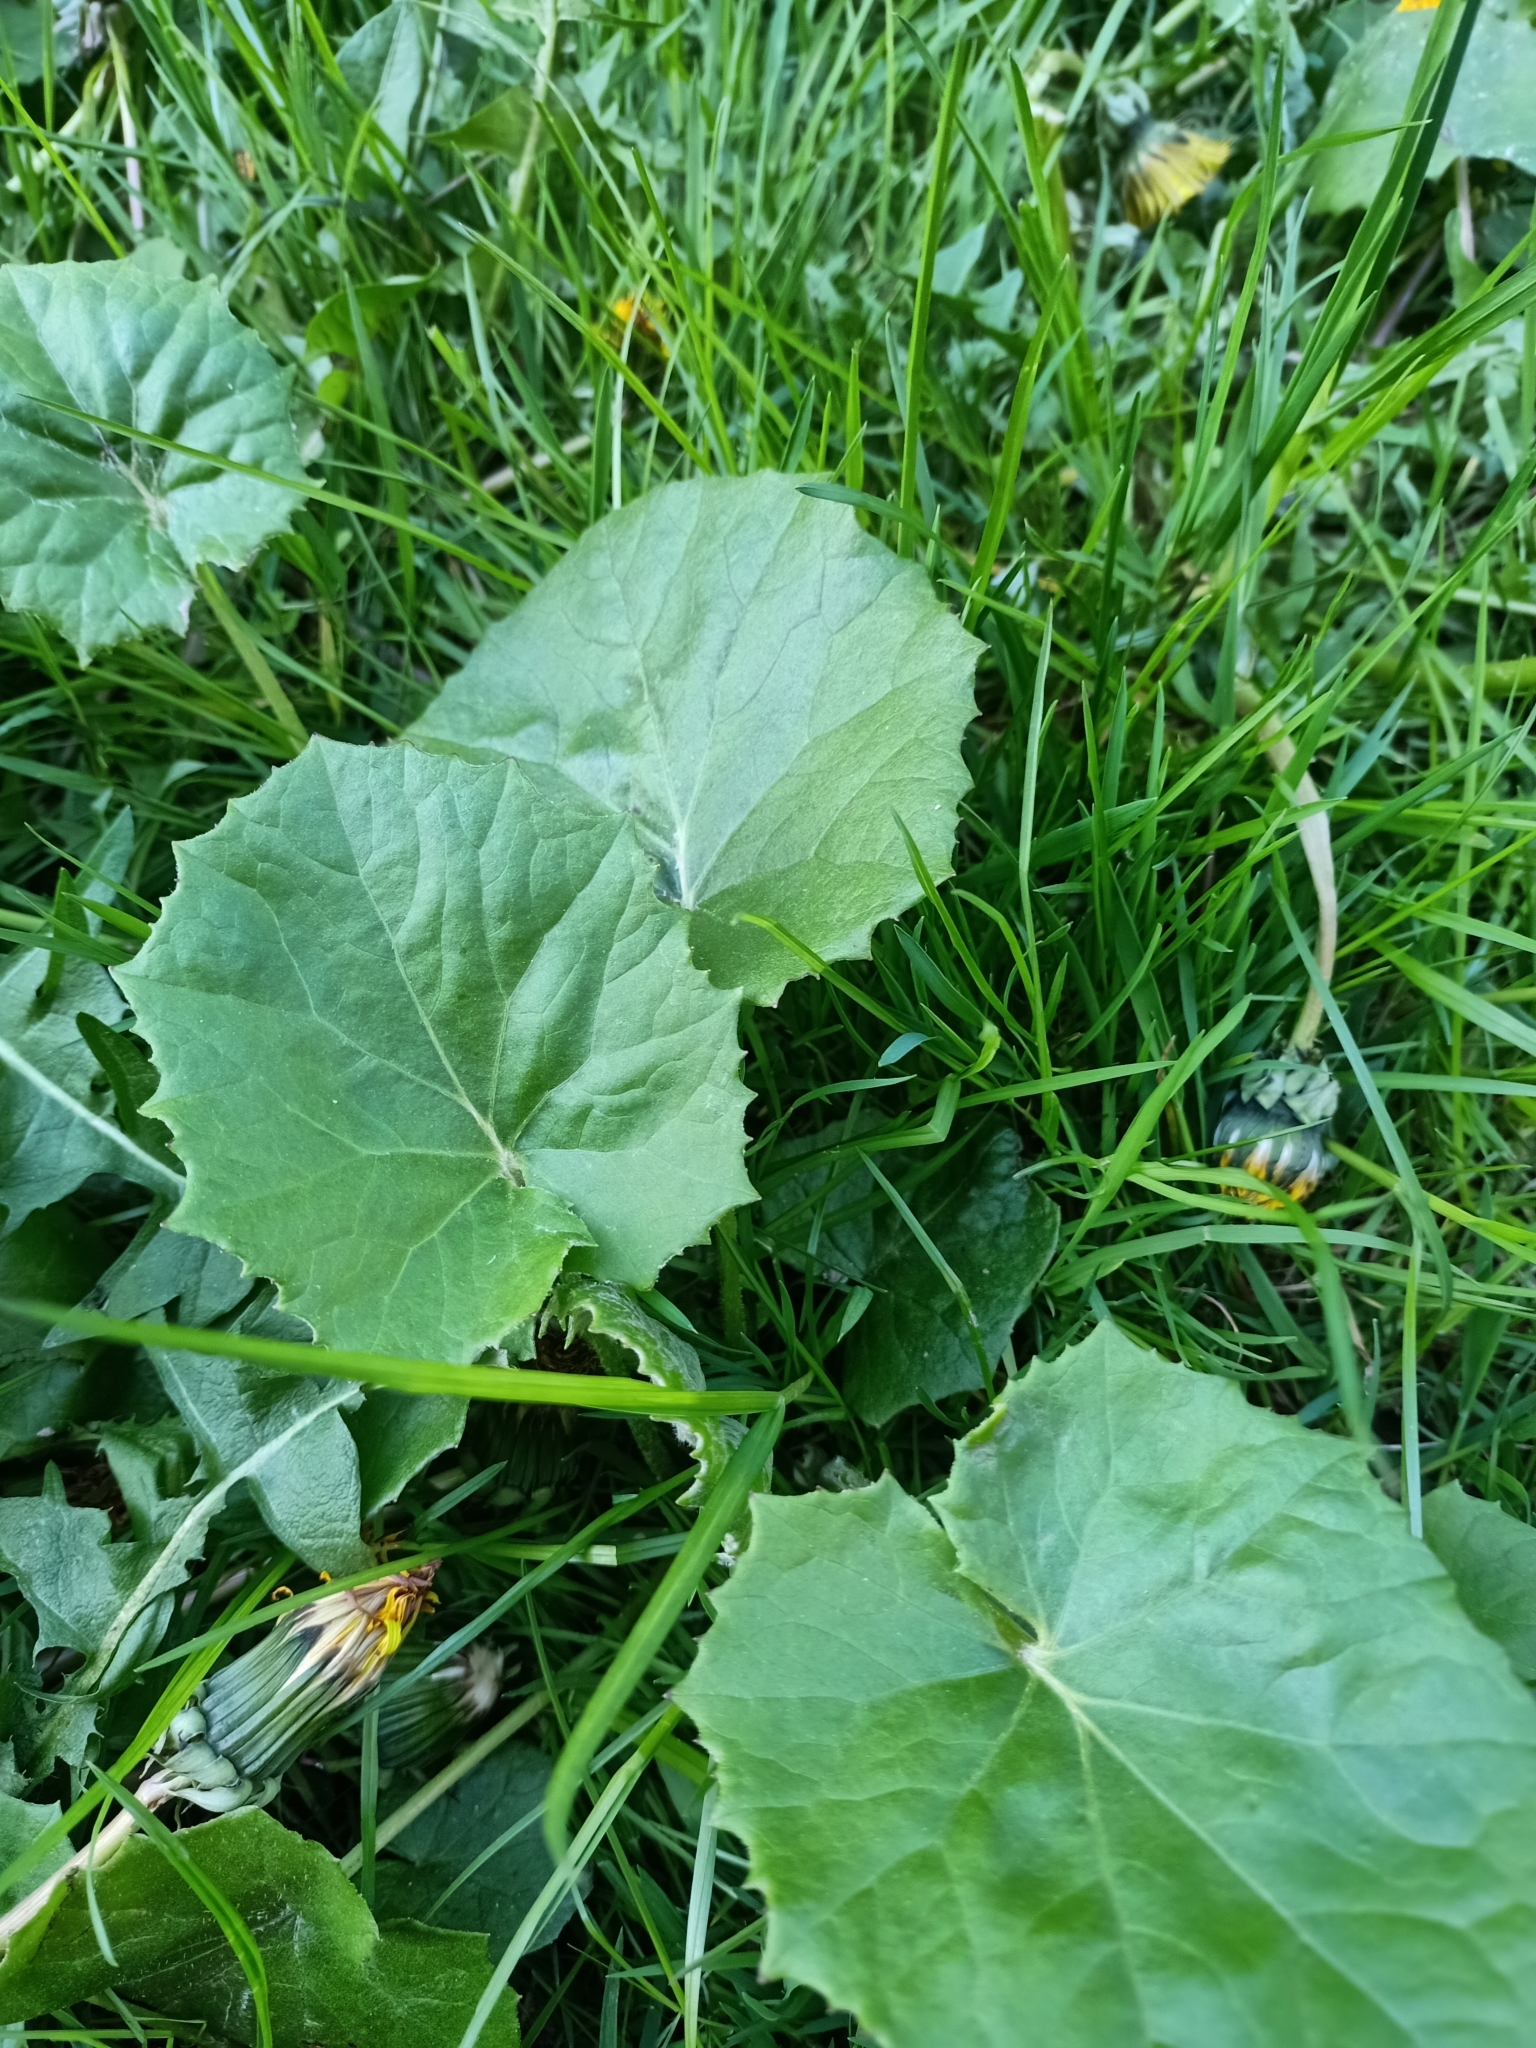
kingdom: Plantae
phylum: Tracheophyta
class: Magnoliopsida
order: Asterales
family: Asteraceae
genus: Tussilago
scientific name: Tussilago farfara
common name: Coltsfoot
